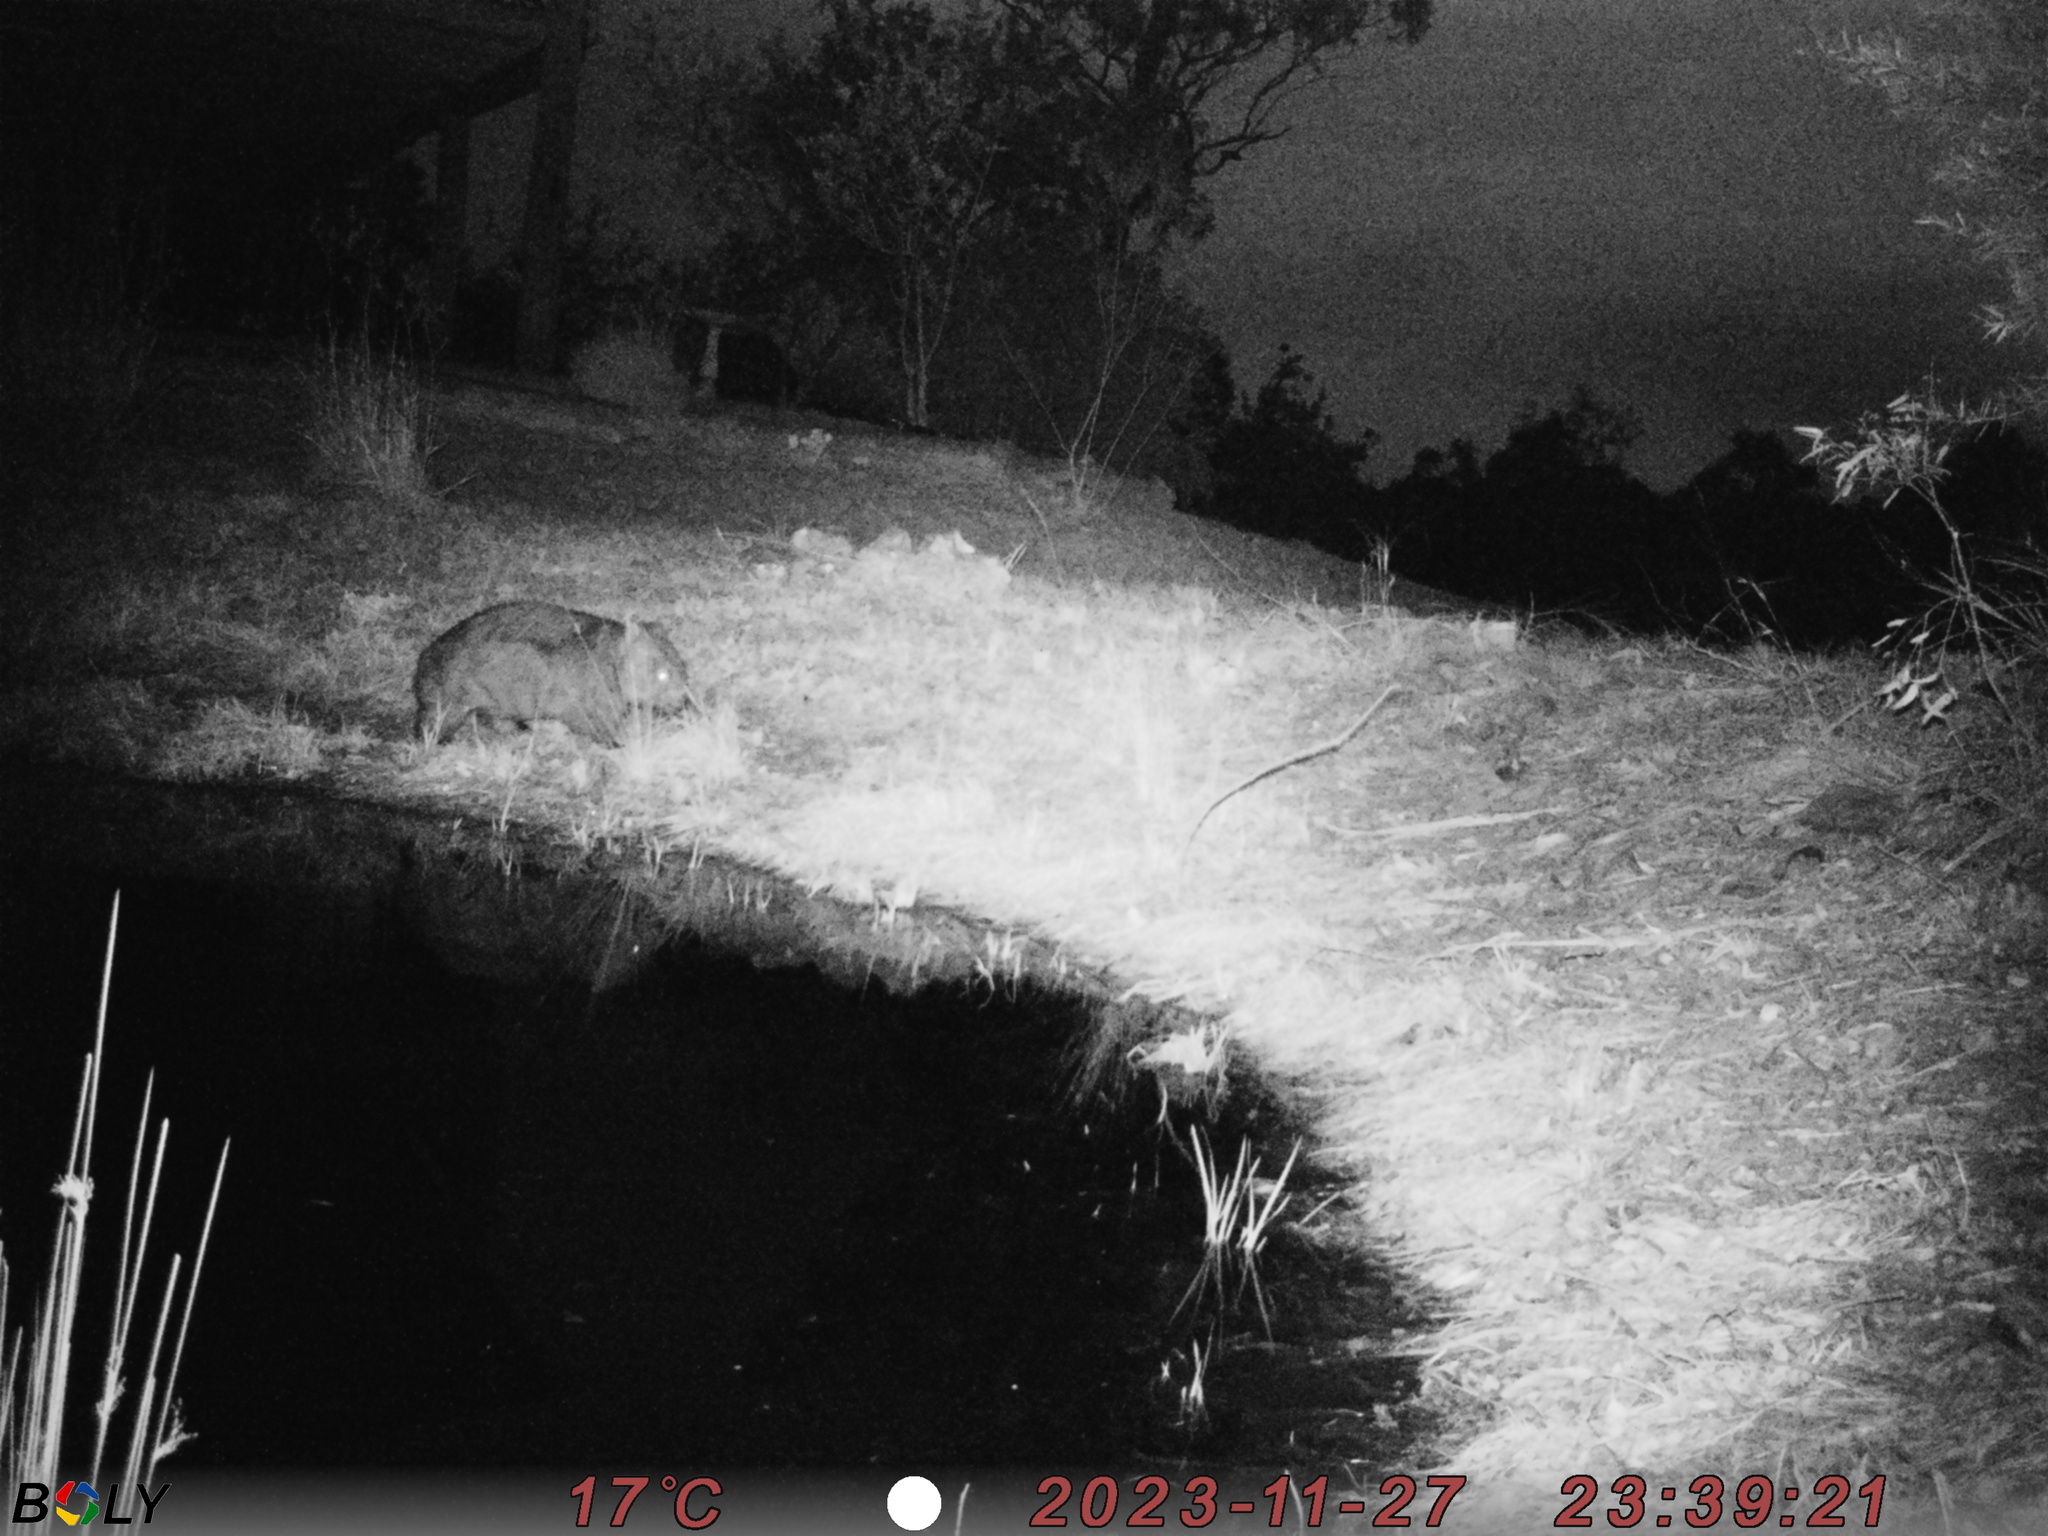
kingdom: Animalia
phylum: Chordata
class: Mammalia
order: Diprotodontia
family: Vombatidae
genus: Vombatus
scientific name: Vombatus ursinus
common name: Common wombat
